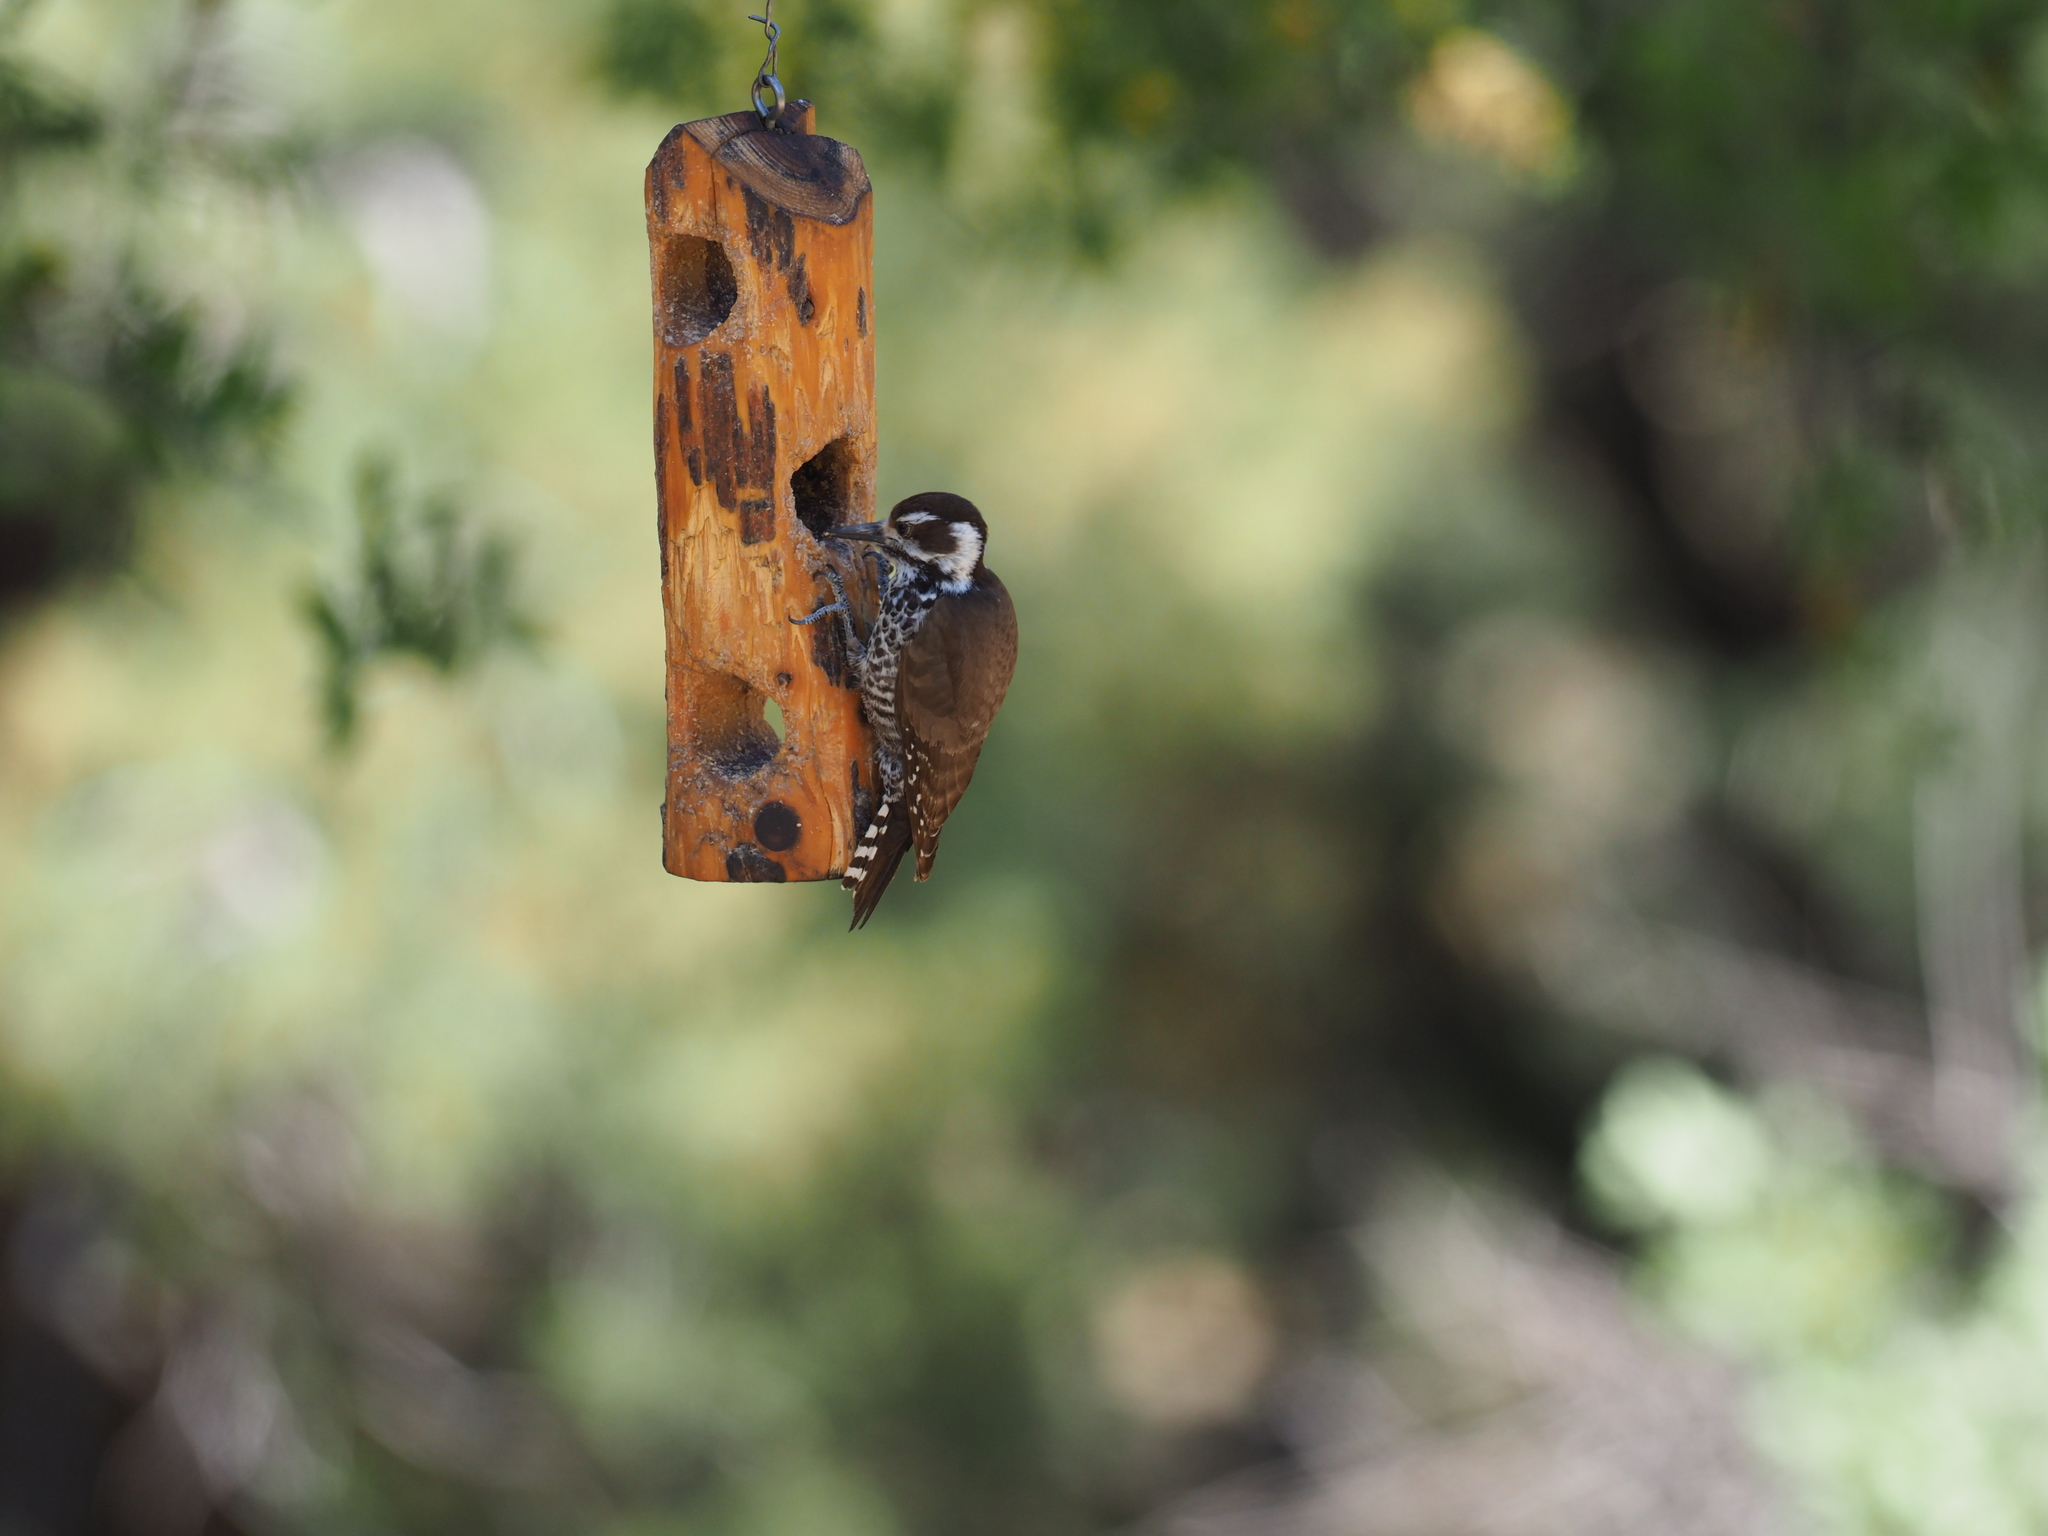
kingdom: Animalia
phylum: Chordata
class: Aves
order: Piciformes
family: Picidae
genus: Leuconotopicus
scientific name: Leuconotopicus arizonae
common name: Arizona woodpecker
